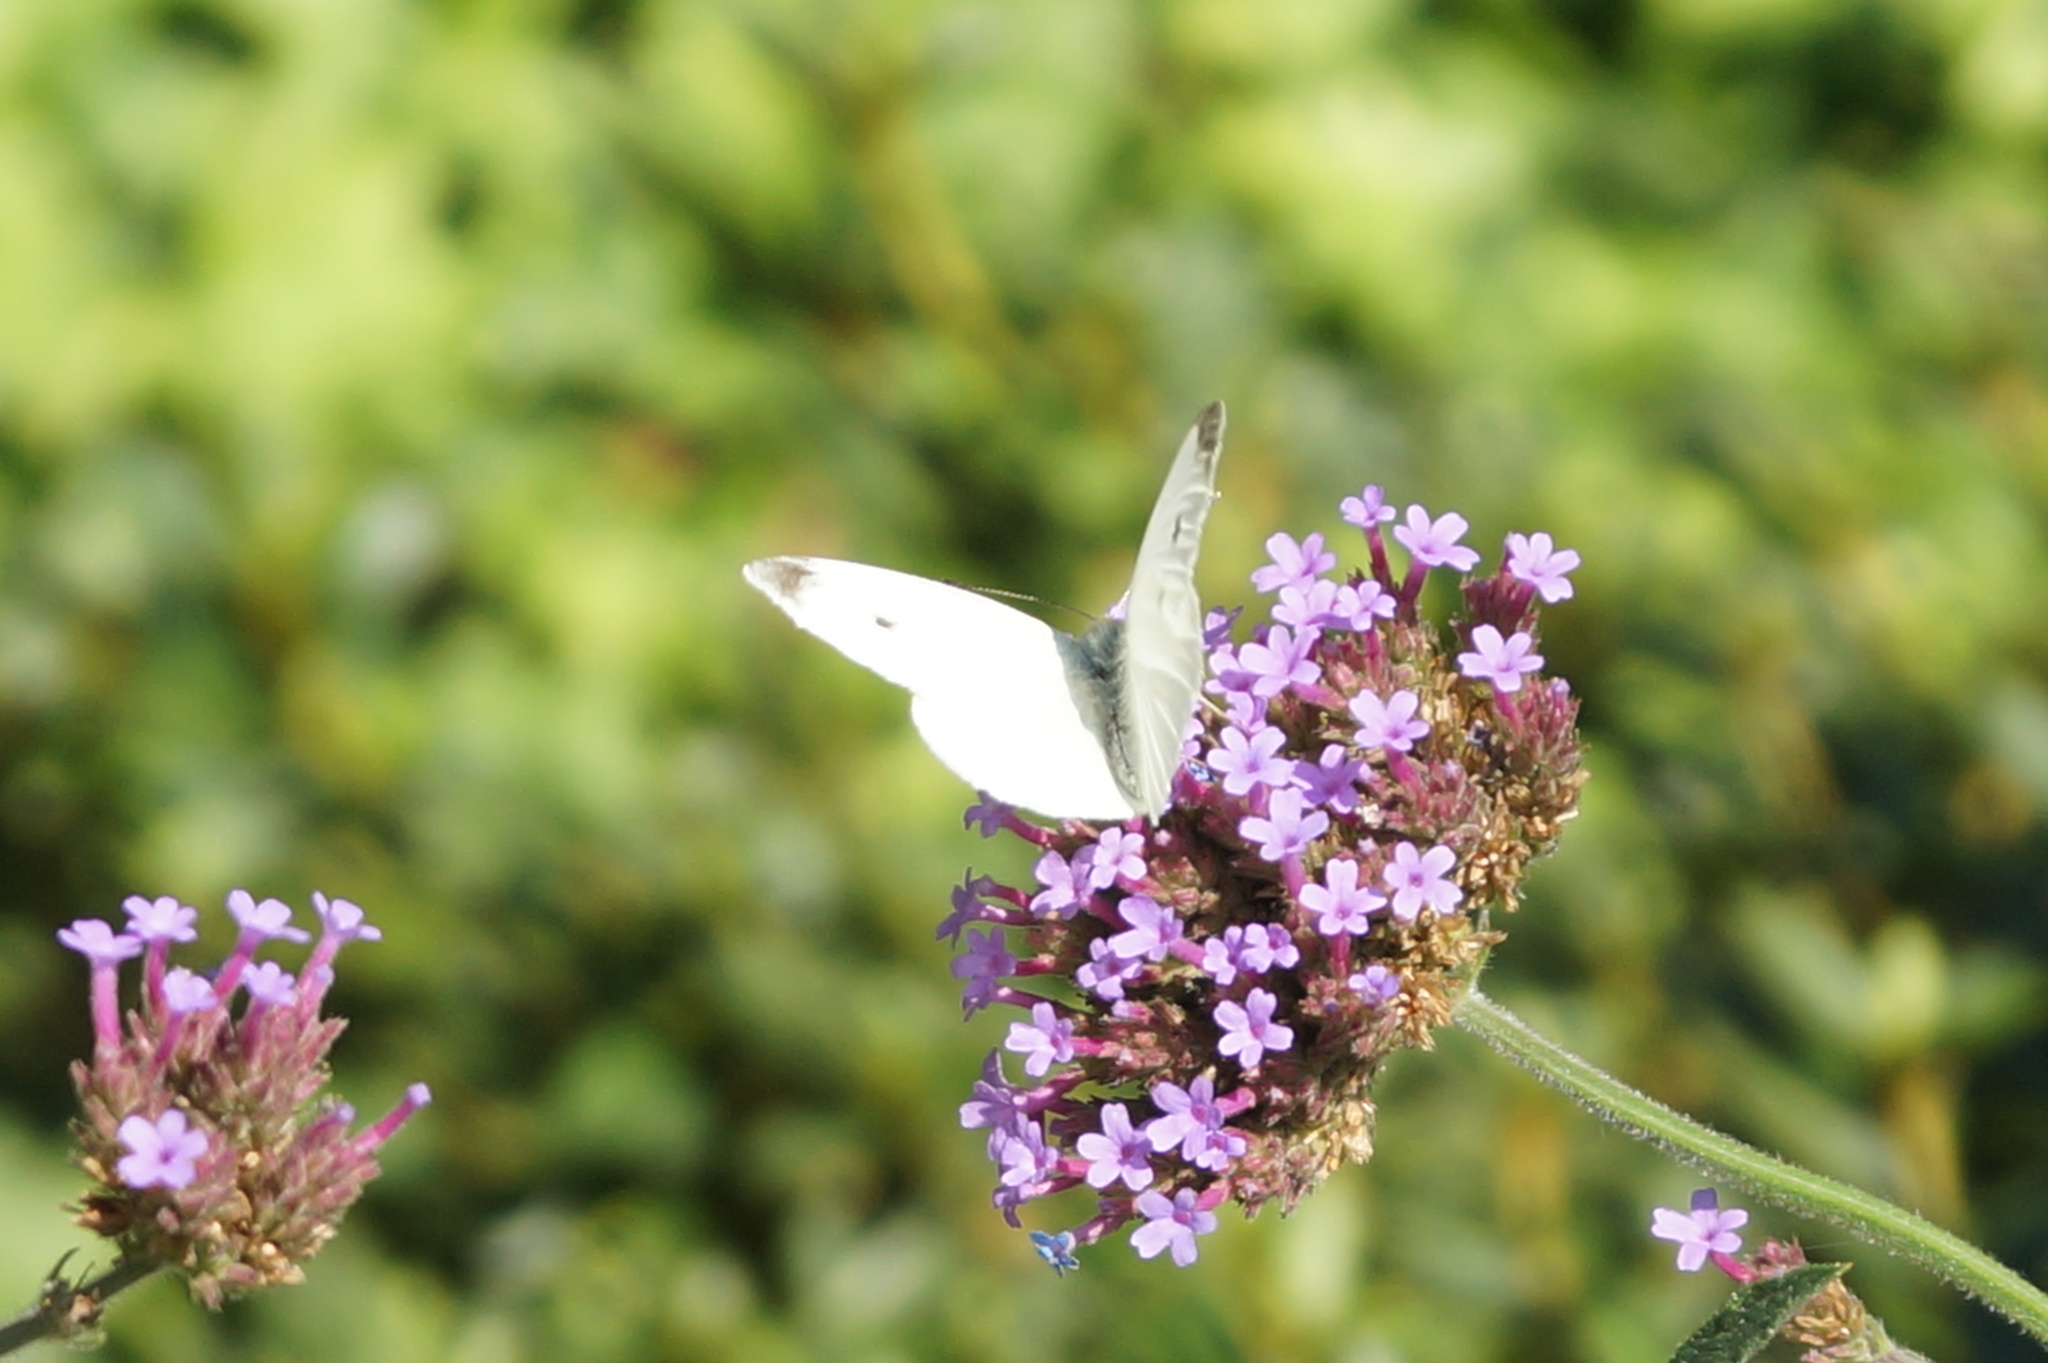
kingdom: Animalia
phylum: Arthropoda
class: Insecta
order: Lepidoptera
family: Pieridae
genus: Pieris
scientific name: Pieris rapae
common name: Small white
